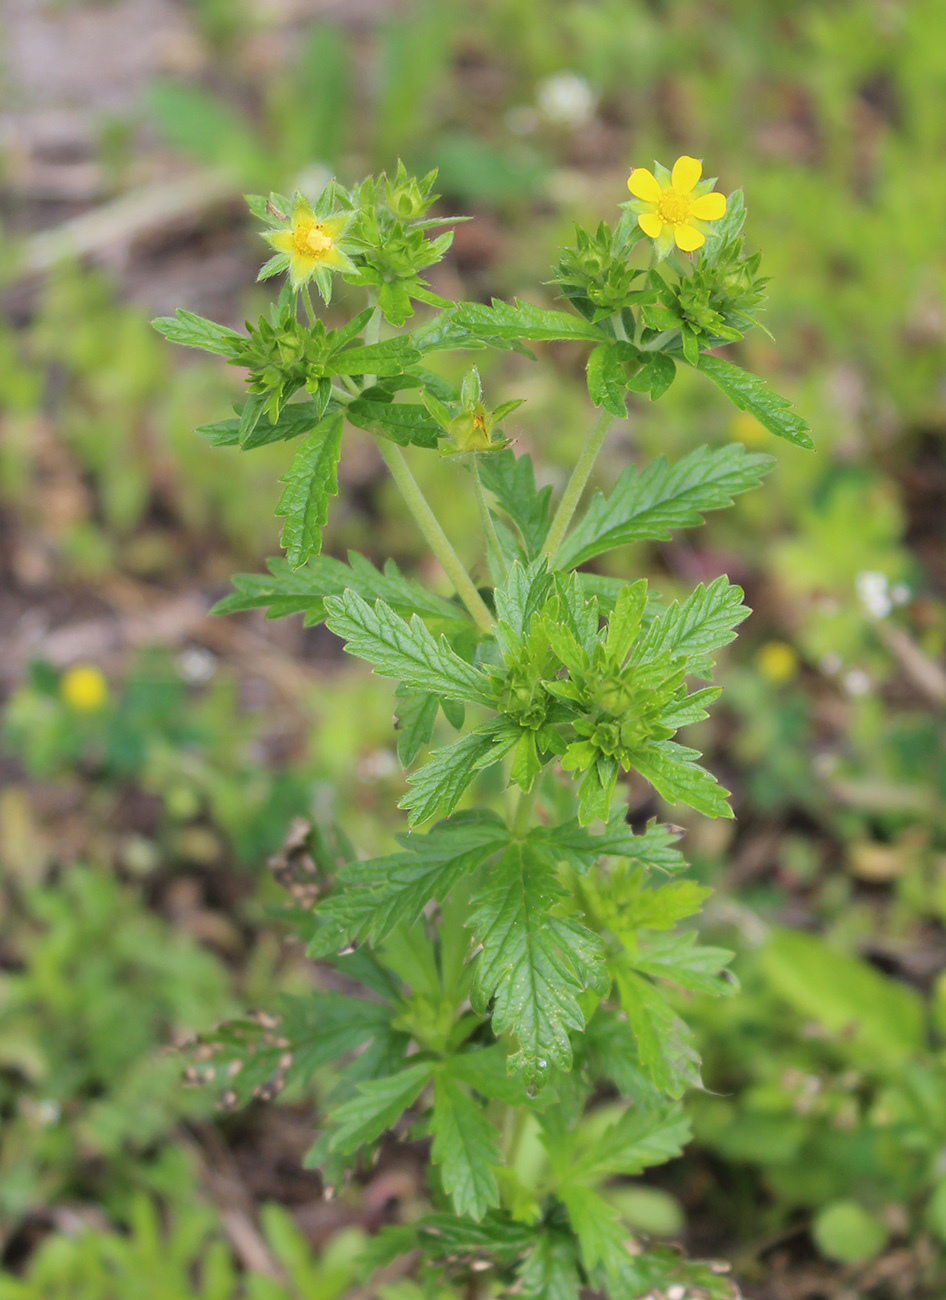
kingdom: Plantae
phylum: Tracheophyta
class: Magnoliopsida
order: Rosales
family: Rosaceae
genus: Potentilla
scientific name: Potentilla norvegica
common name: Ternate-leaved cinquefoil
